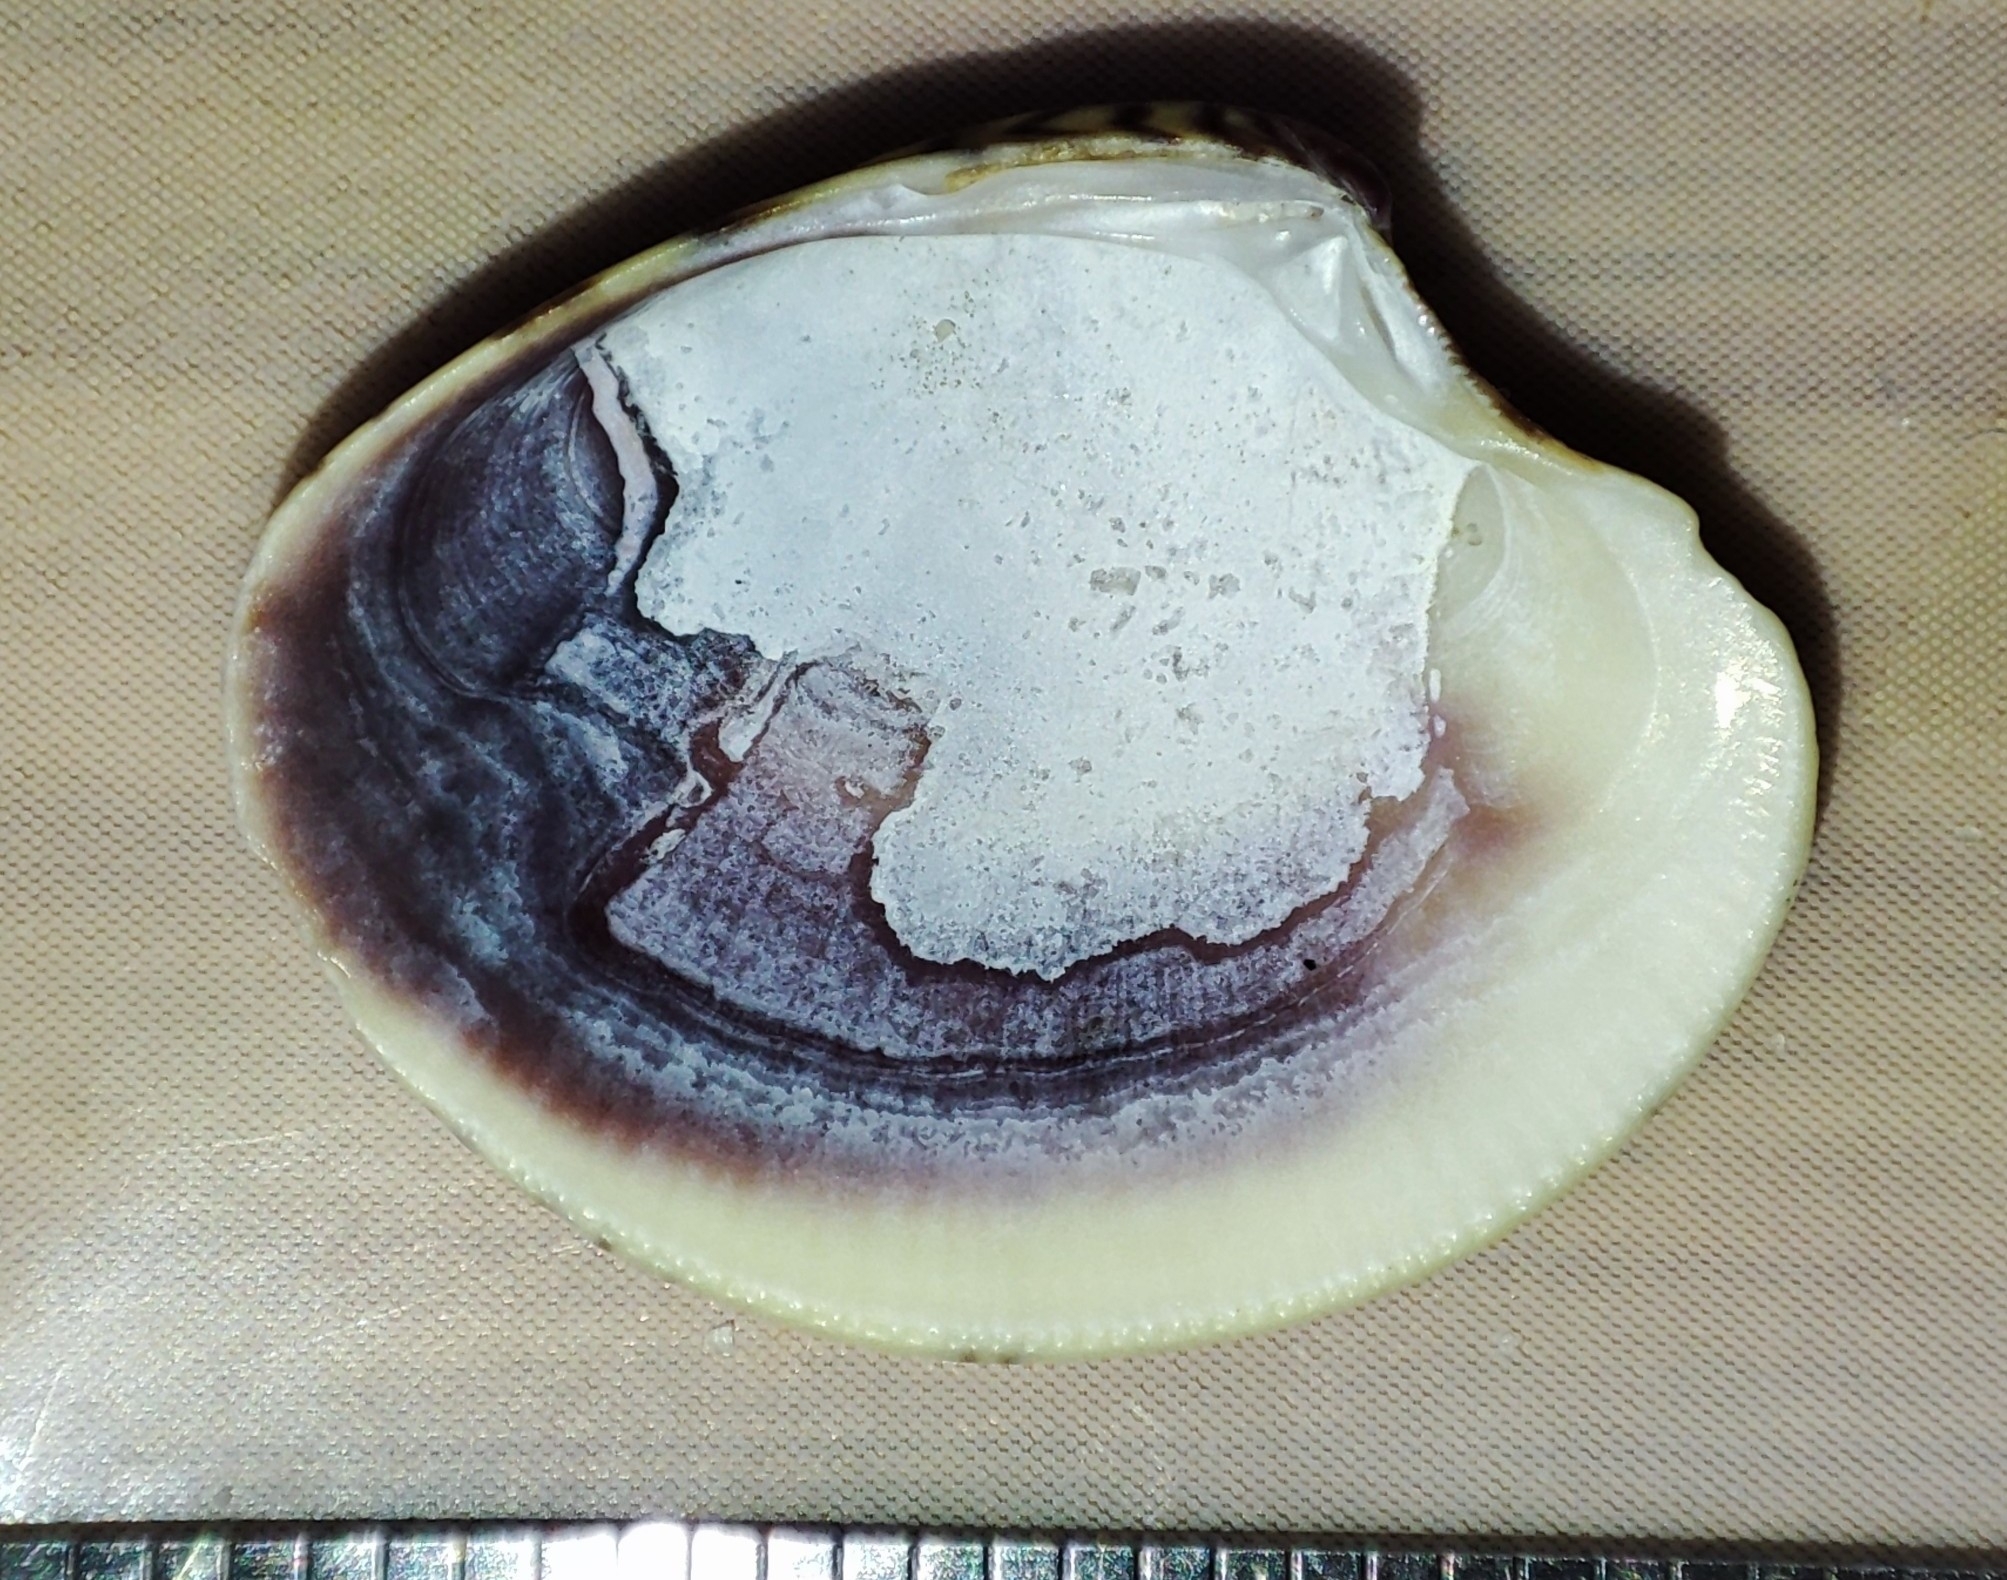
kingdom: Animalia
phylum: Mollusca
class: Bivalvia
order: Venerida
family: Veneridae
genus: Chamelea
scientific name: Chamelea gallina
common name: Chicken venus
